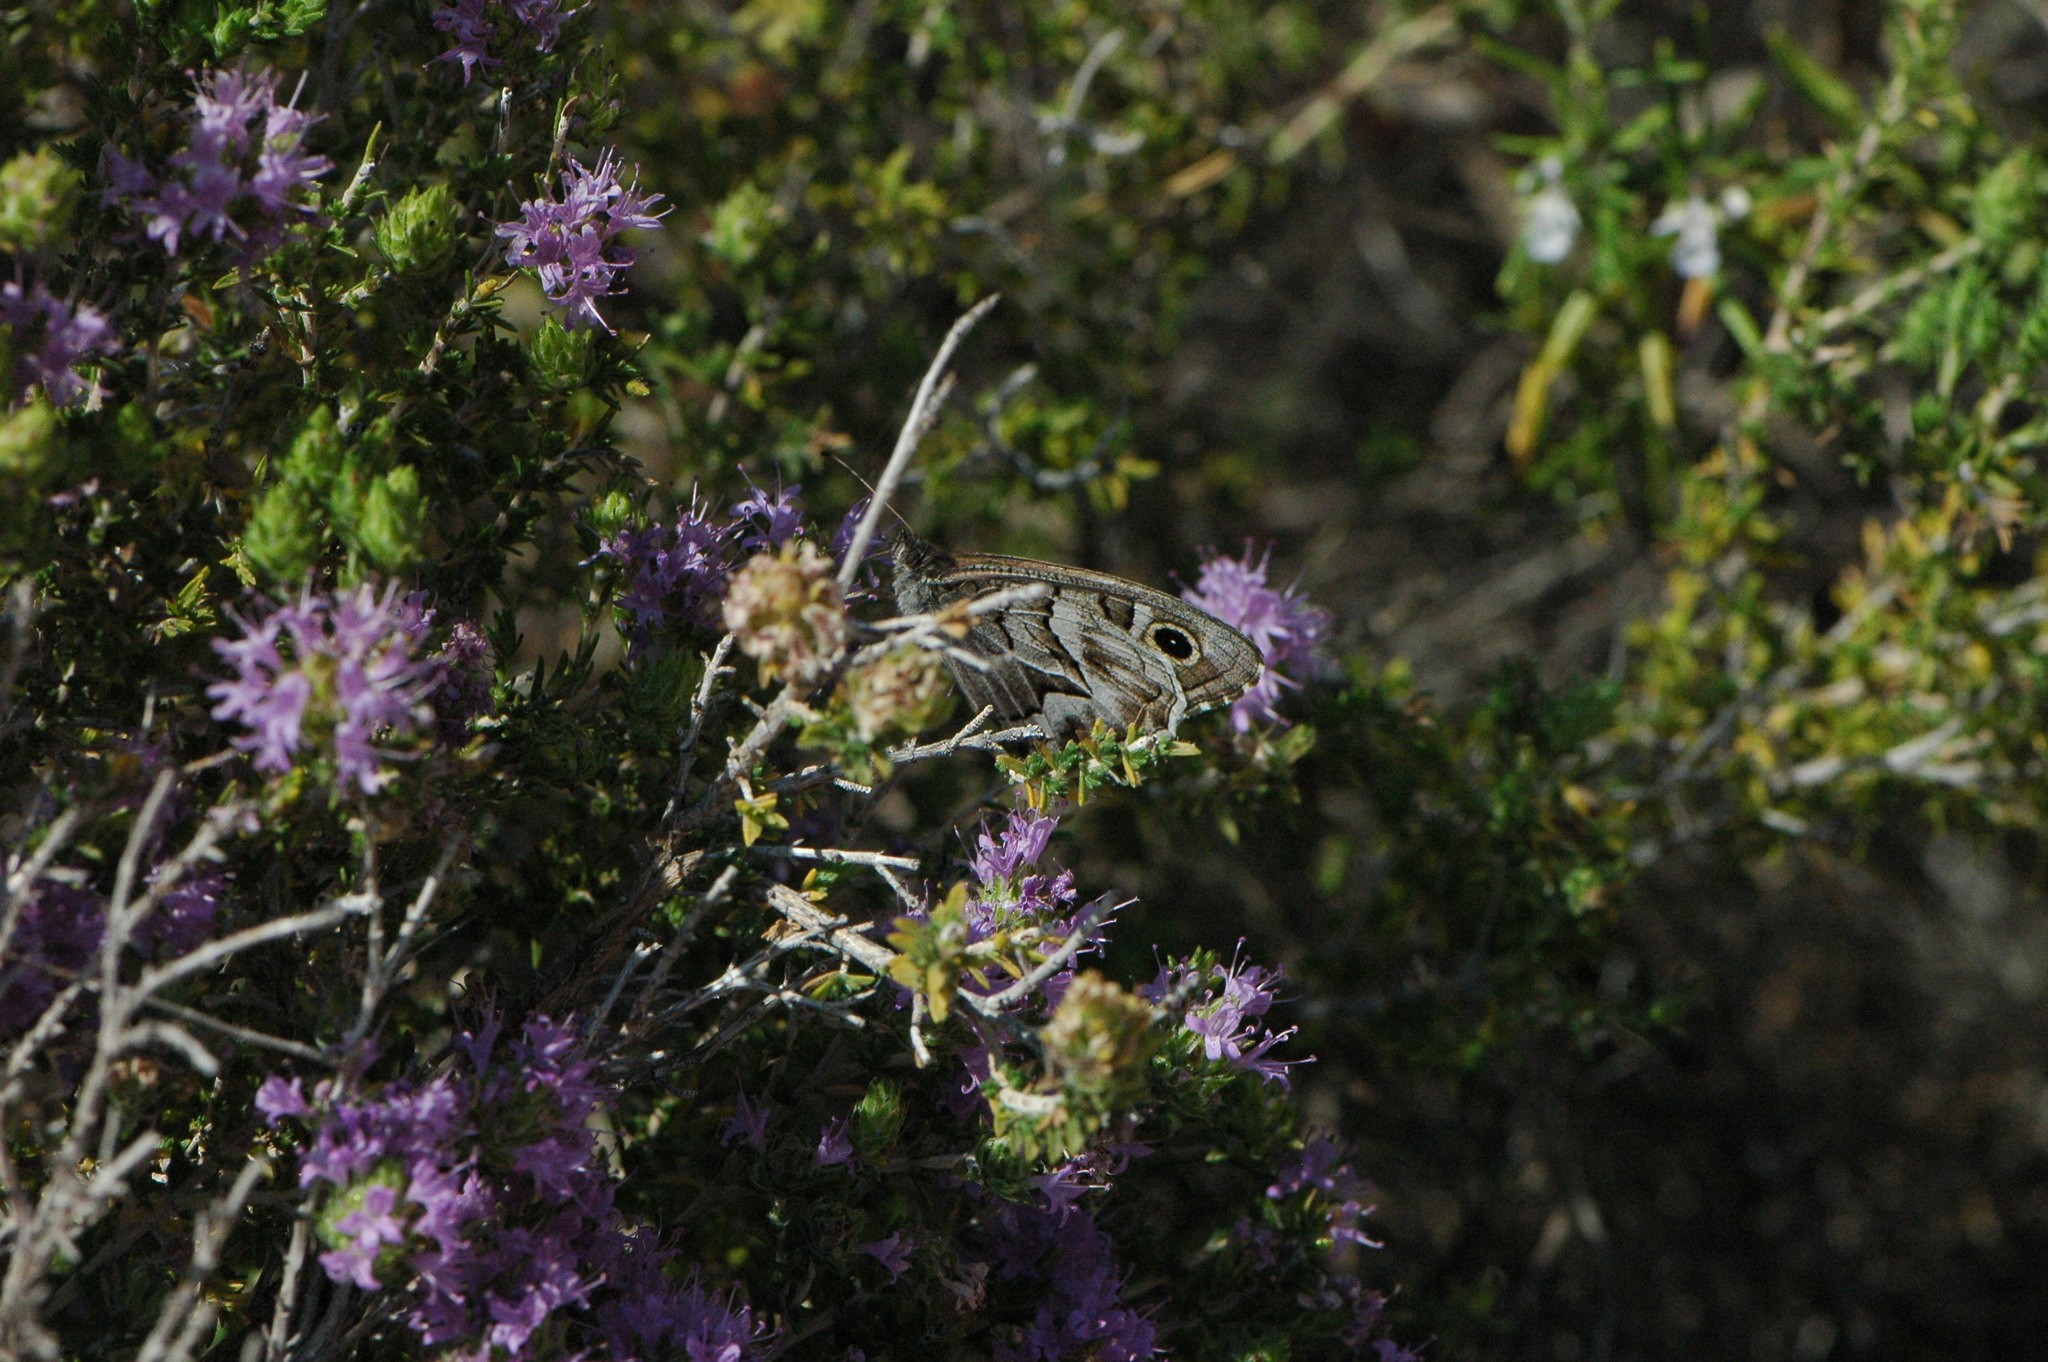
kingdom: Animalia
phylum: Arthropoda
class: Insecta
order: Lepidoptera
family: Nymphalidae
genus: Hipparchia
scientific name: Hipparchia fidia
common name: Striped grayling
